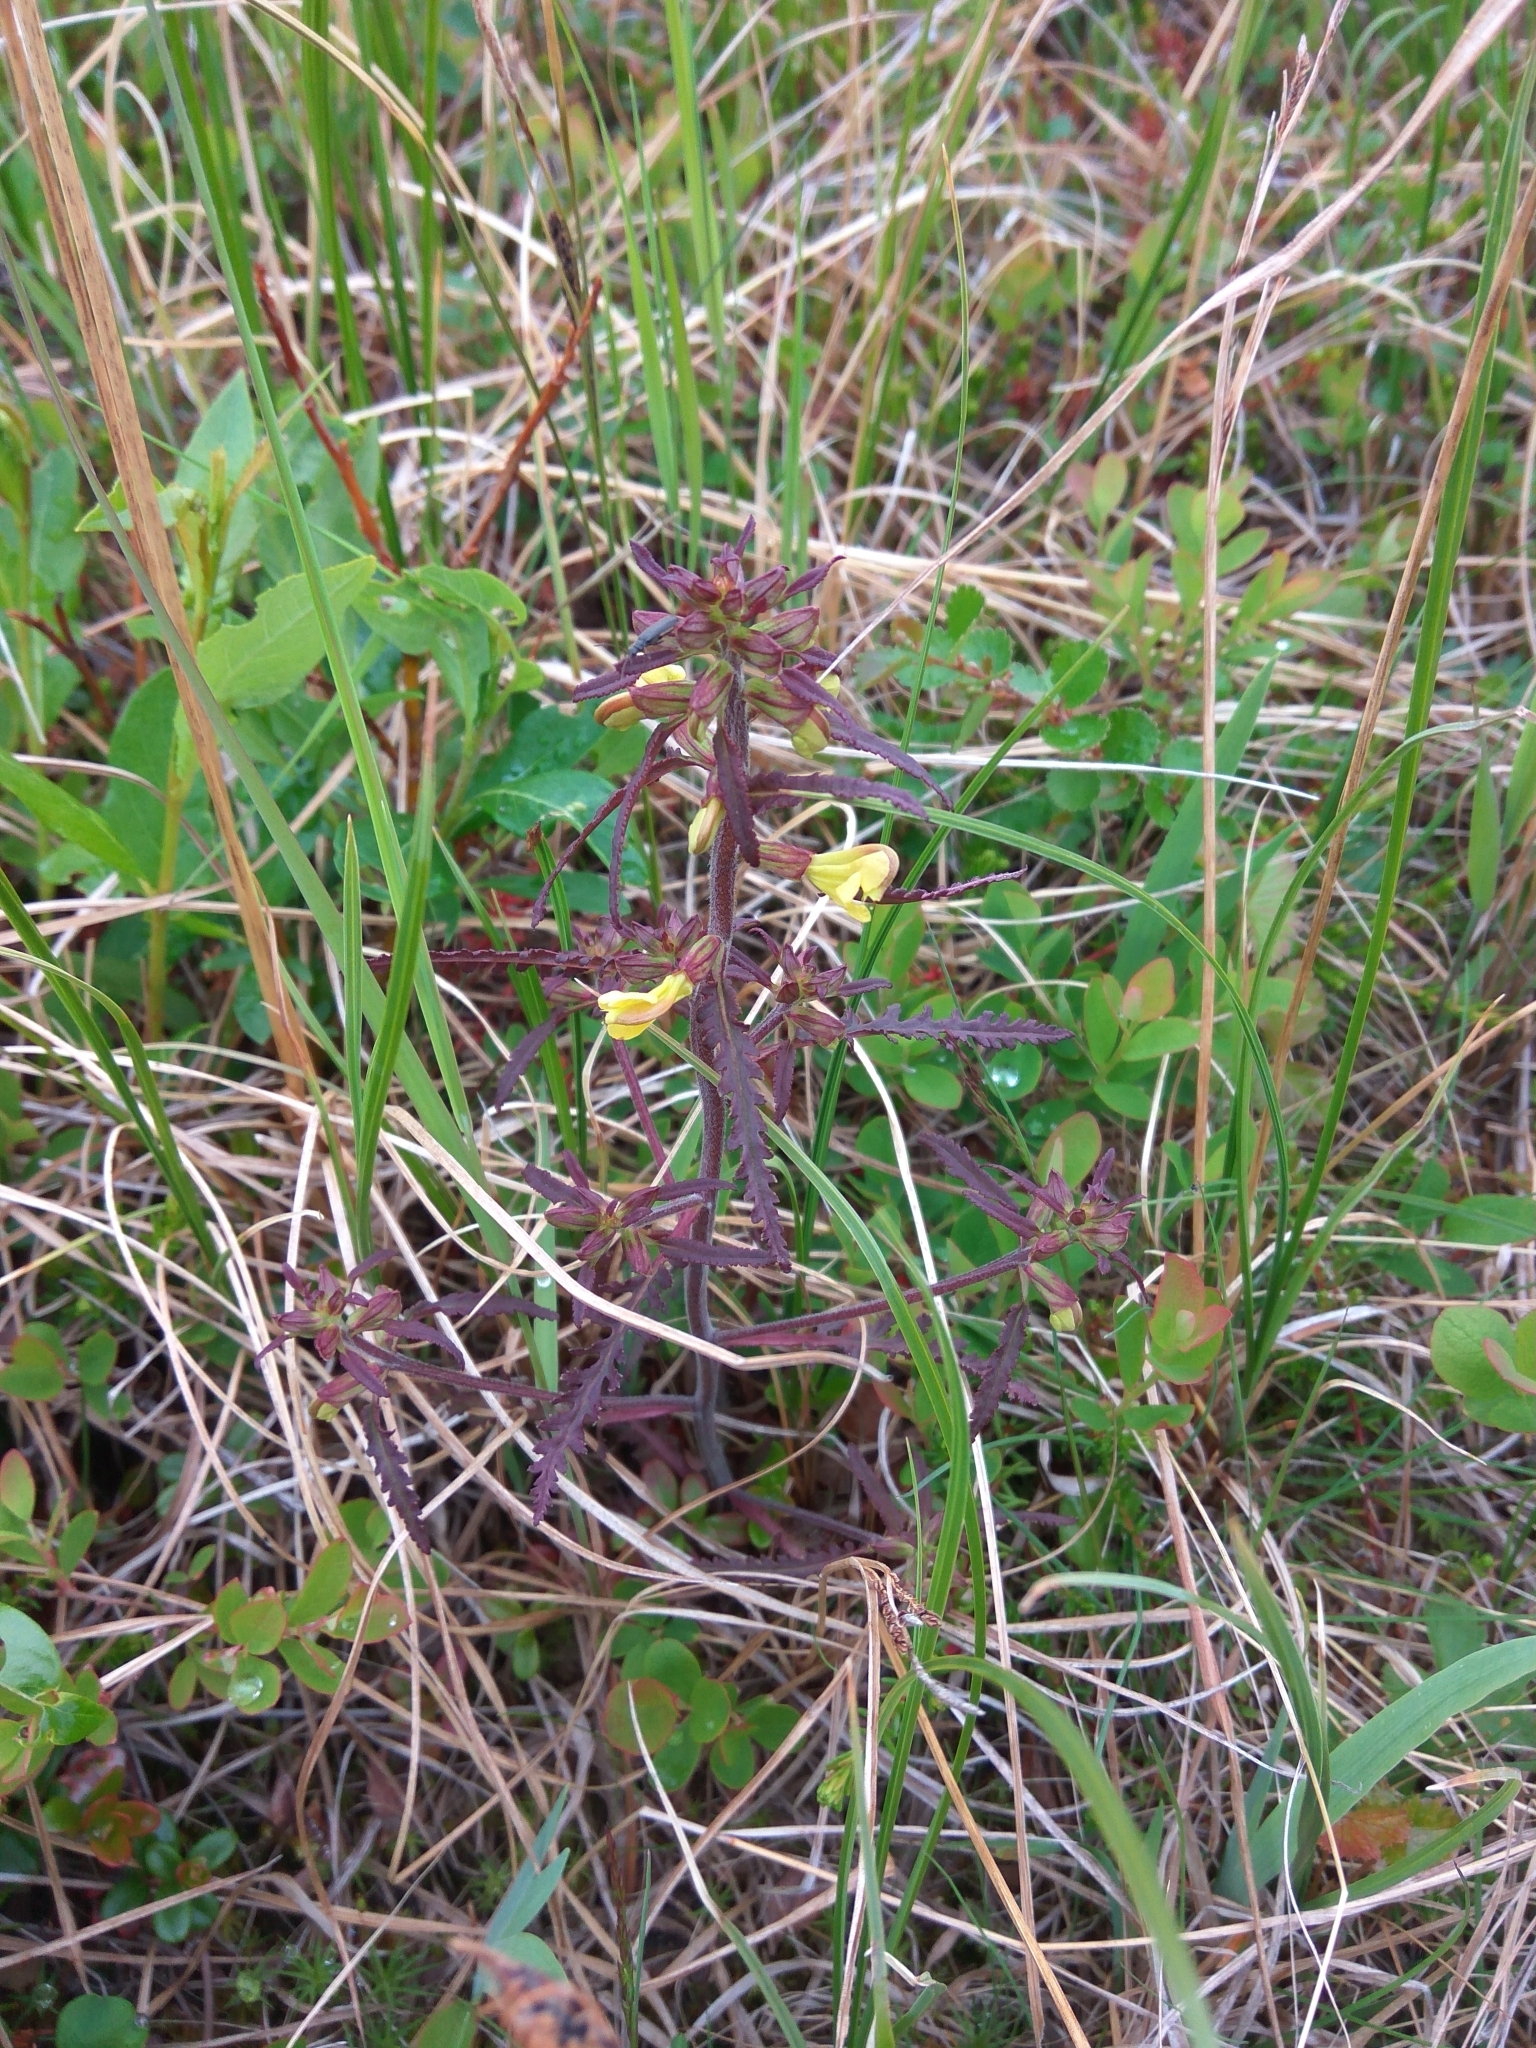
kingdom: Plantae
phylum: Tracheophyta
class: Magnoliopsida
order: Lamiales
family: Orobanchaceae
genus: Pedicularis
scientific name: Pedicularis labradorica
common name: Labrador lousewort
